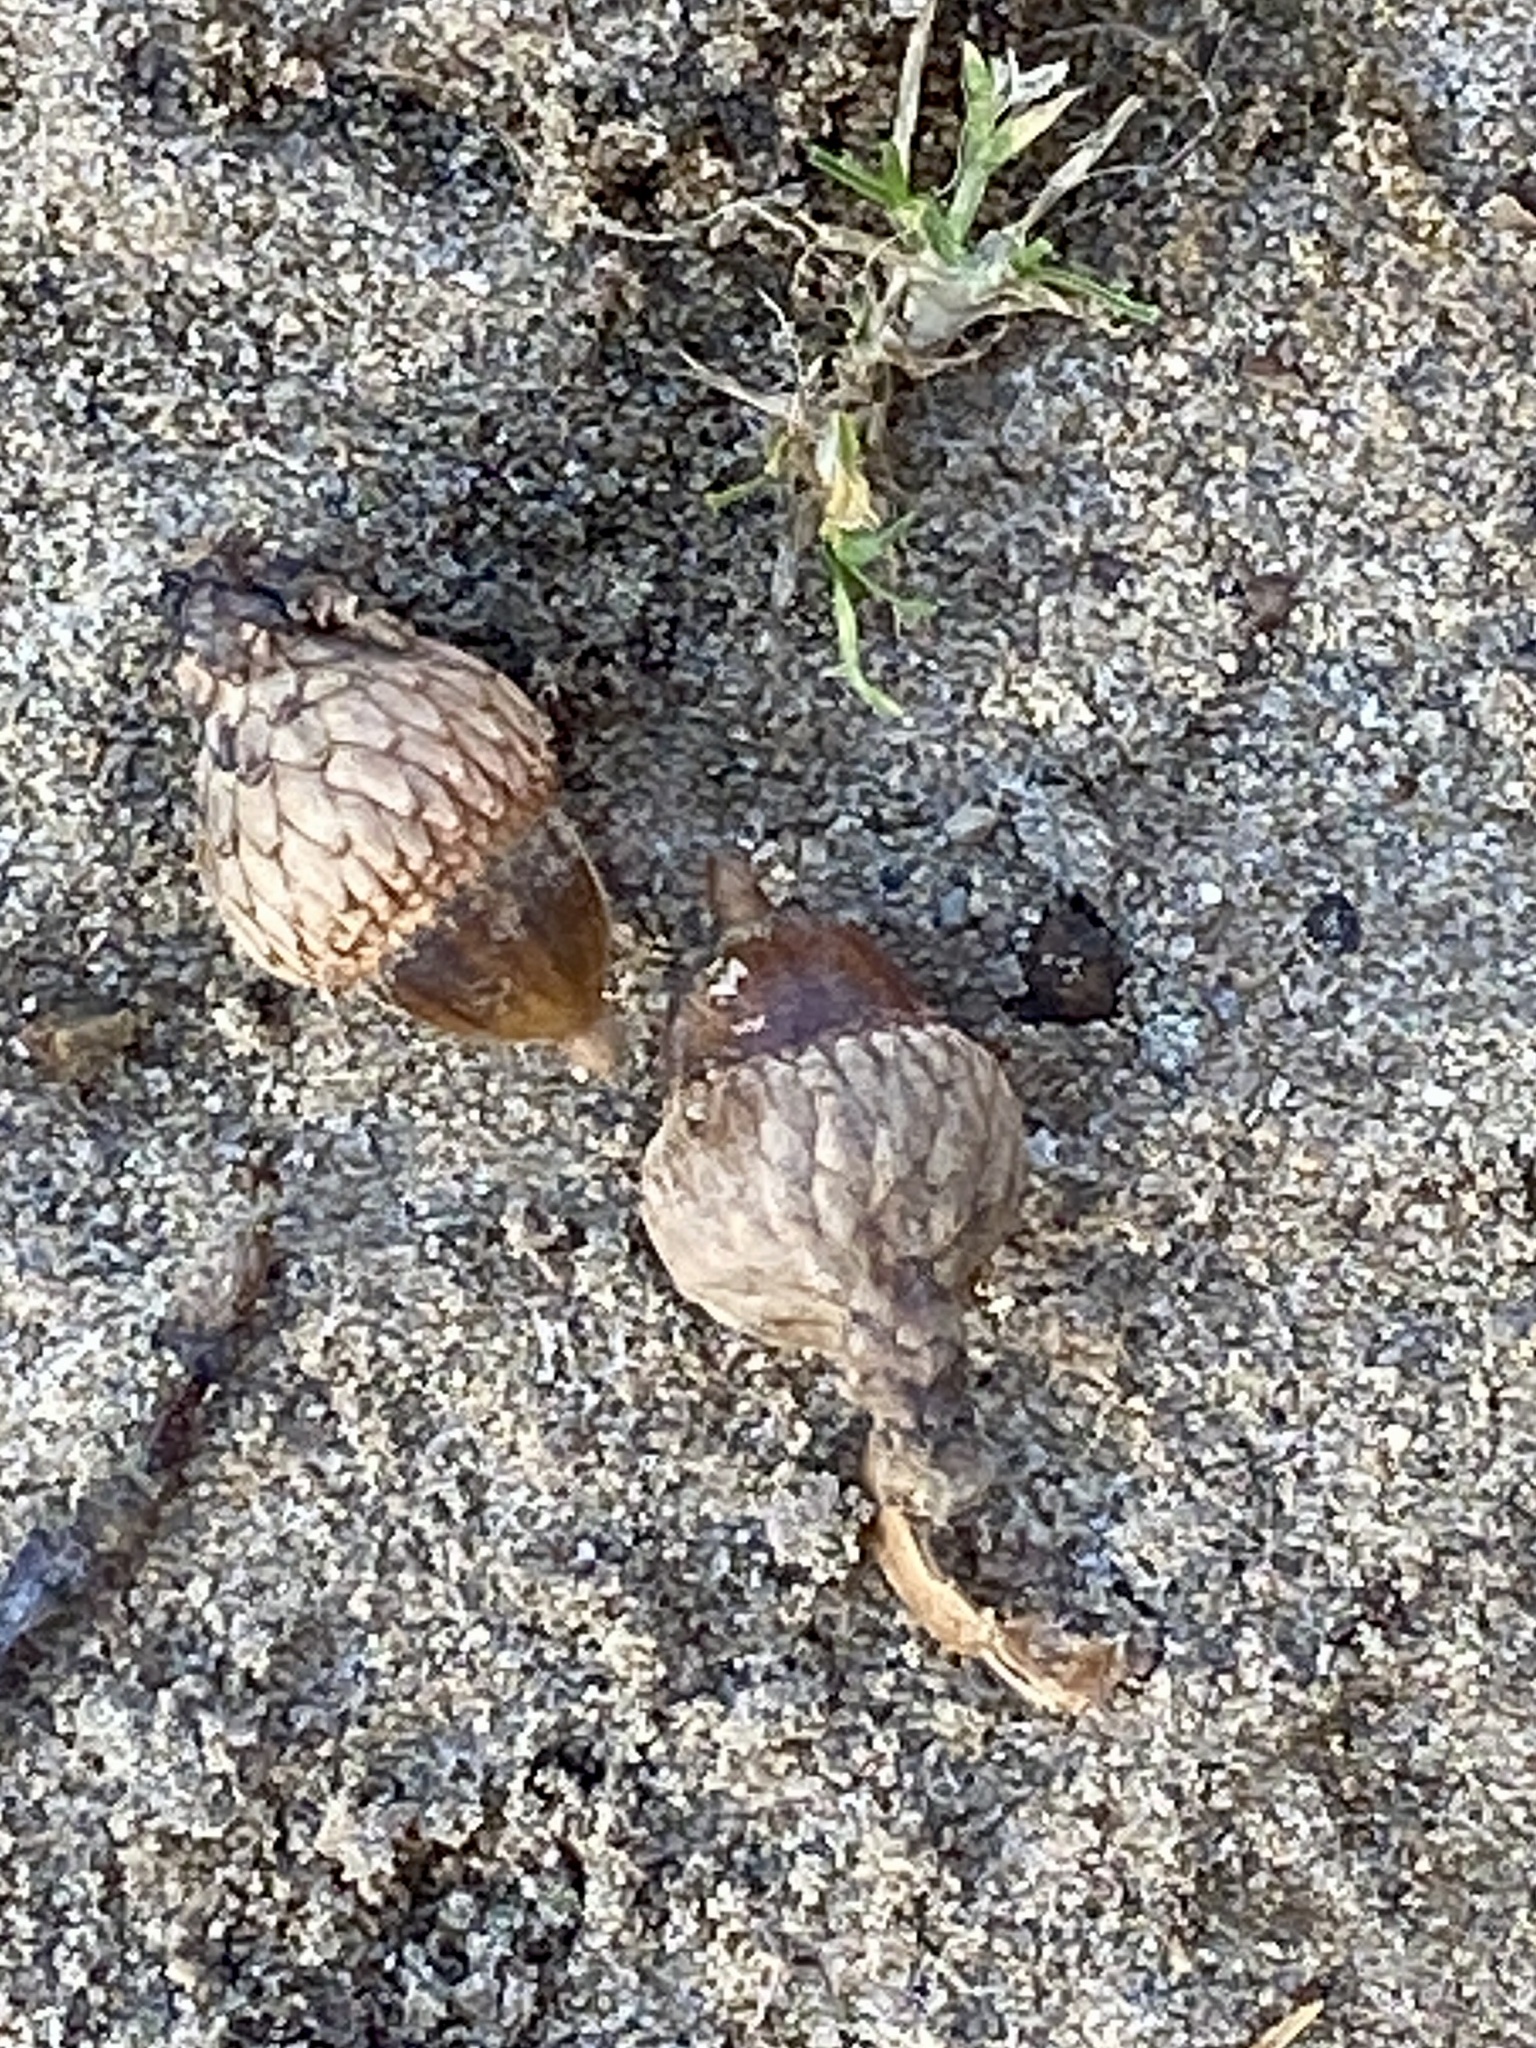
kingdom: Plantae
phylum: Tracheophyta
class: Magnoliopsida
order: Fagales
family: Fagaceae
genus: Quercus
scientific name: Quercus velutina
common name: Black oak
